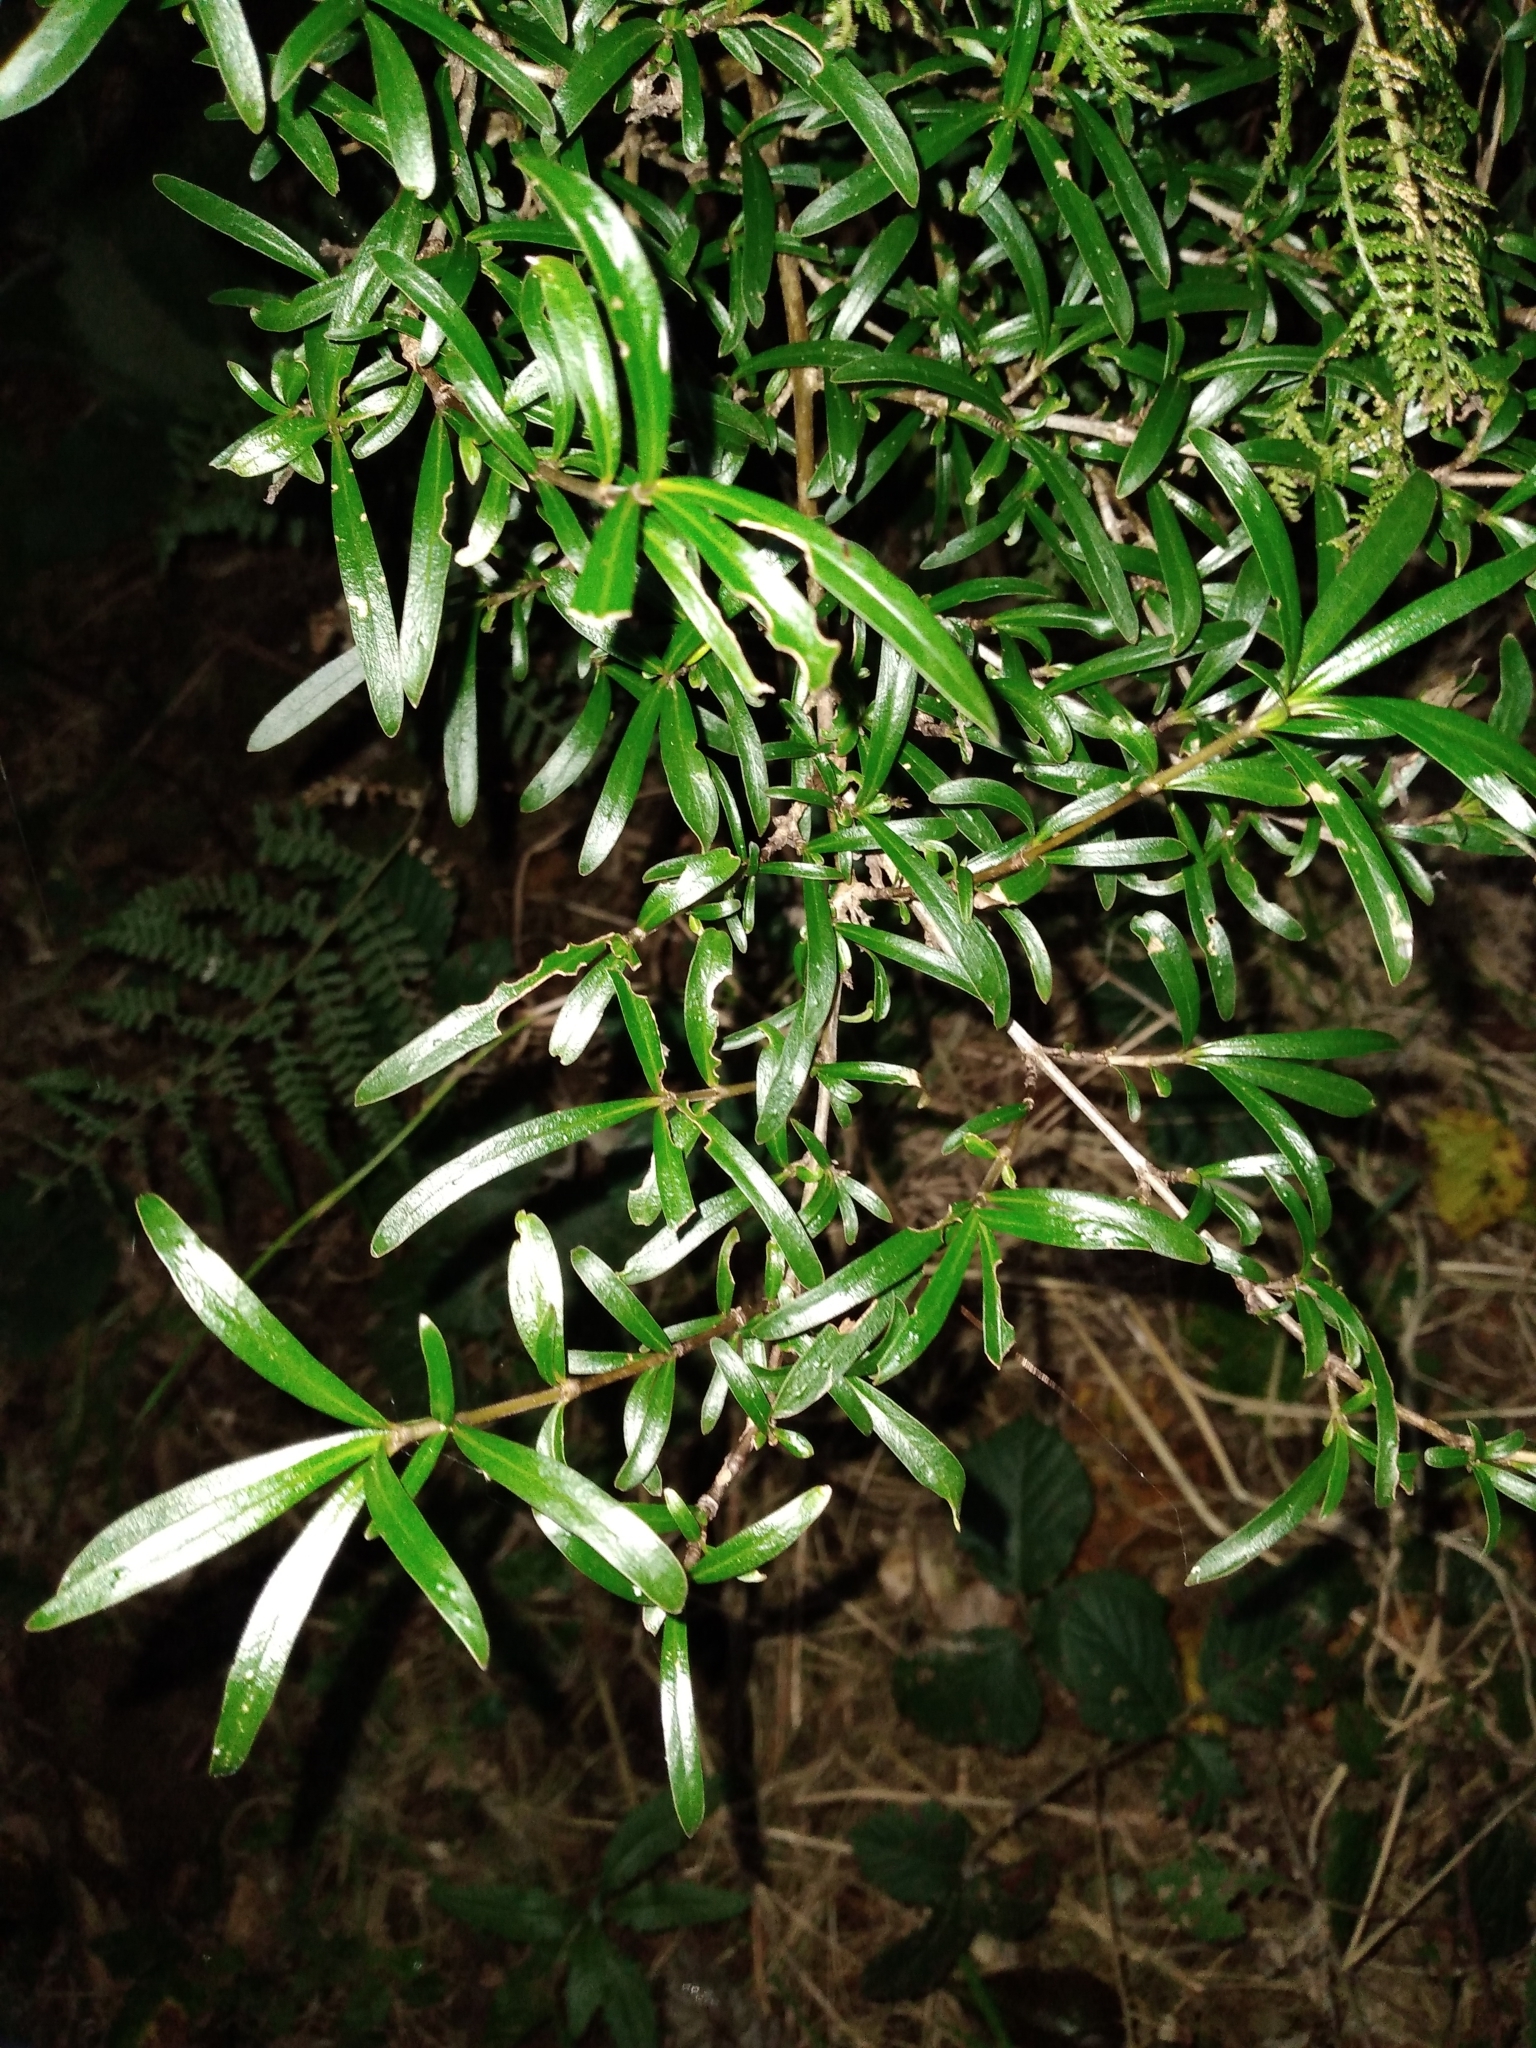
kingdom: Plantae
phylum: Tracheophyta
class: Magnoliopsida
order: Gentianales
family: Rubiaceae
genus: Coprosma
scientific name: Coprosma cunninghamii
